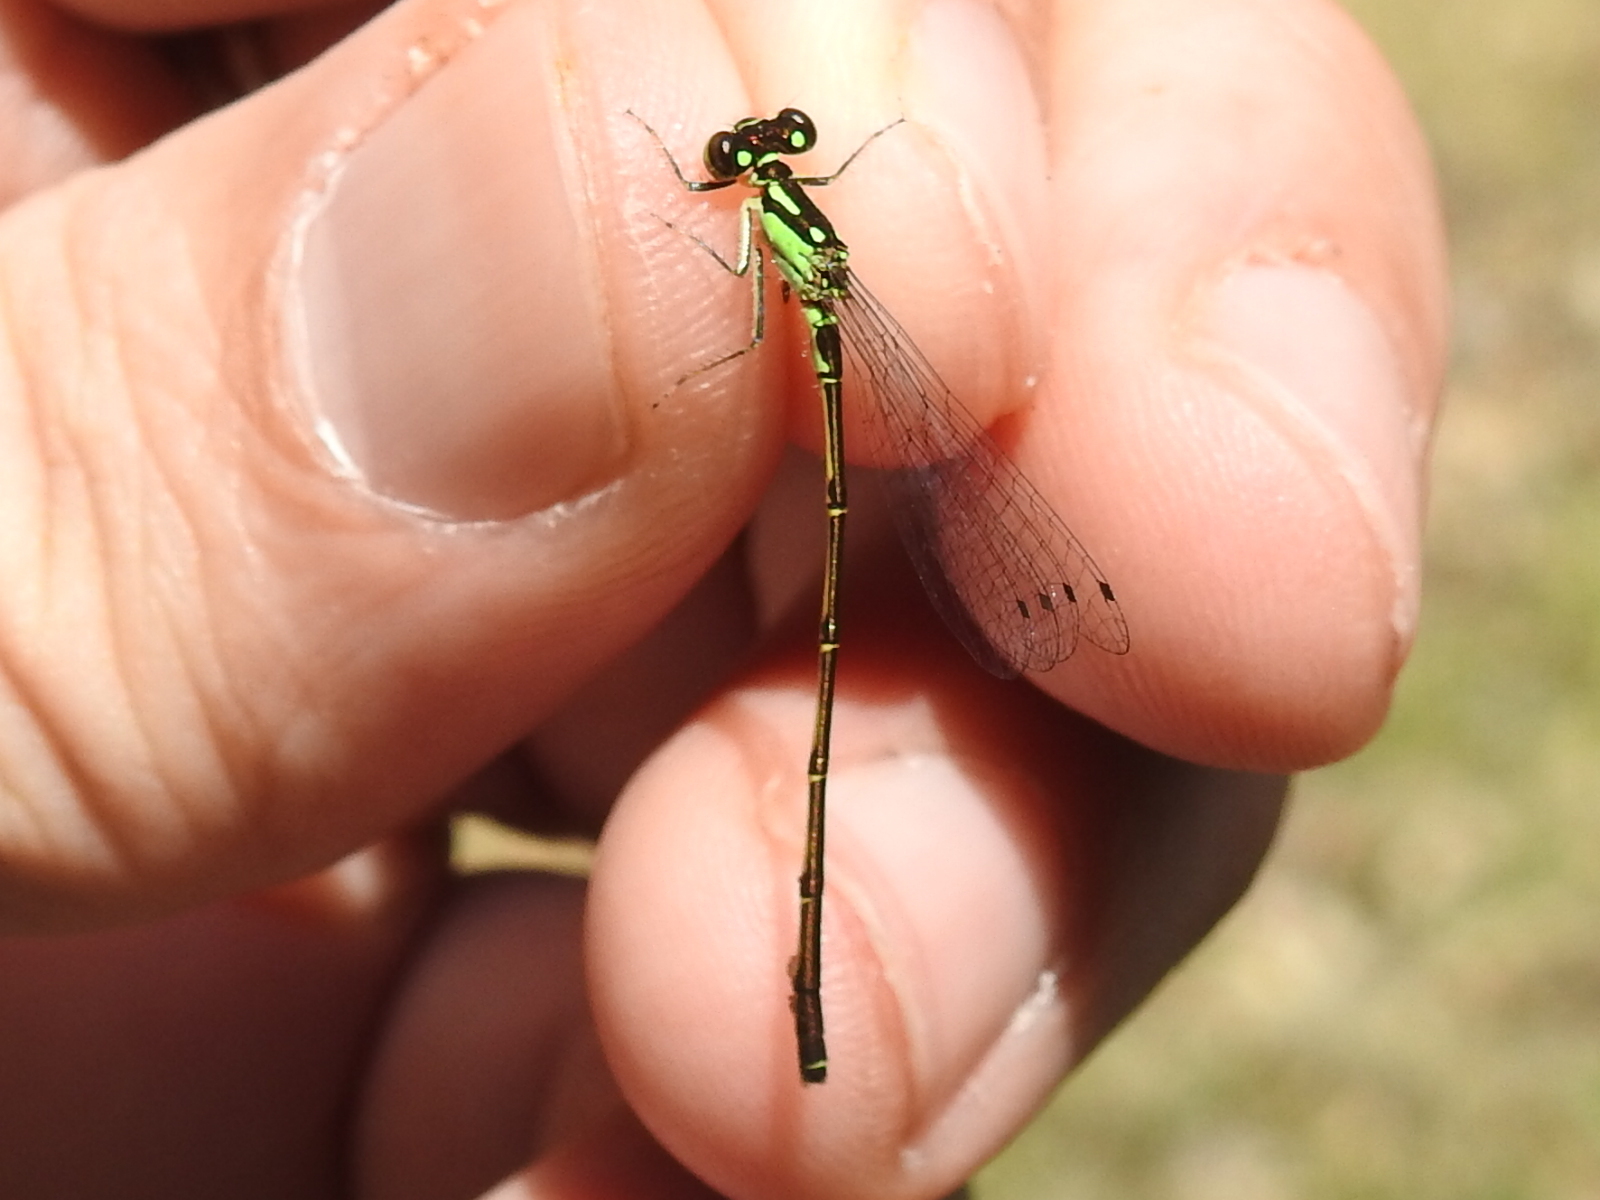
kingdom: Animalia
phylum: Arthropoda
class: Insecta
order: Odonata
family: Coenagrionidae
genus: Ischnura
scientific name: Ischnura posita
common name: Fragile forktail
